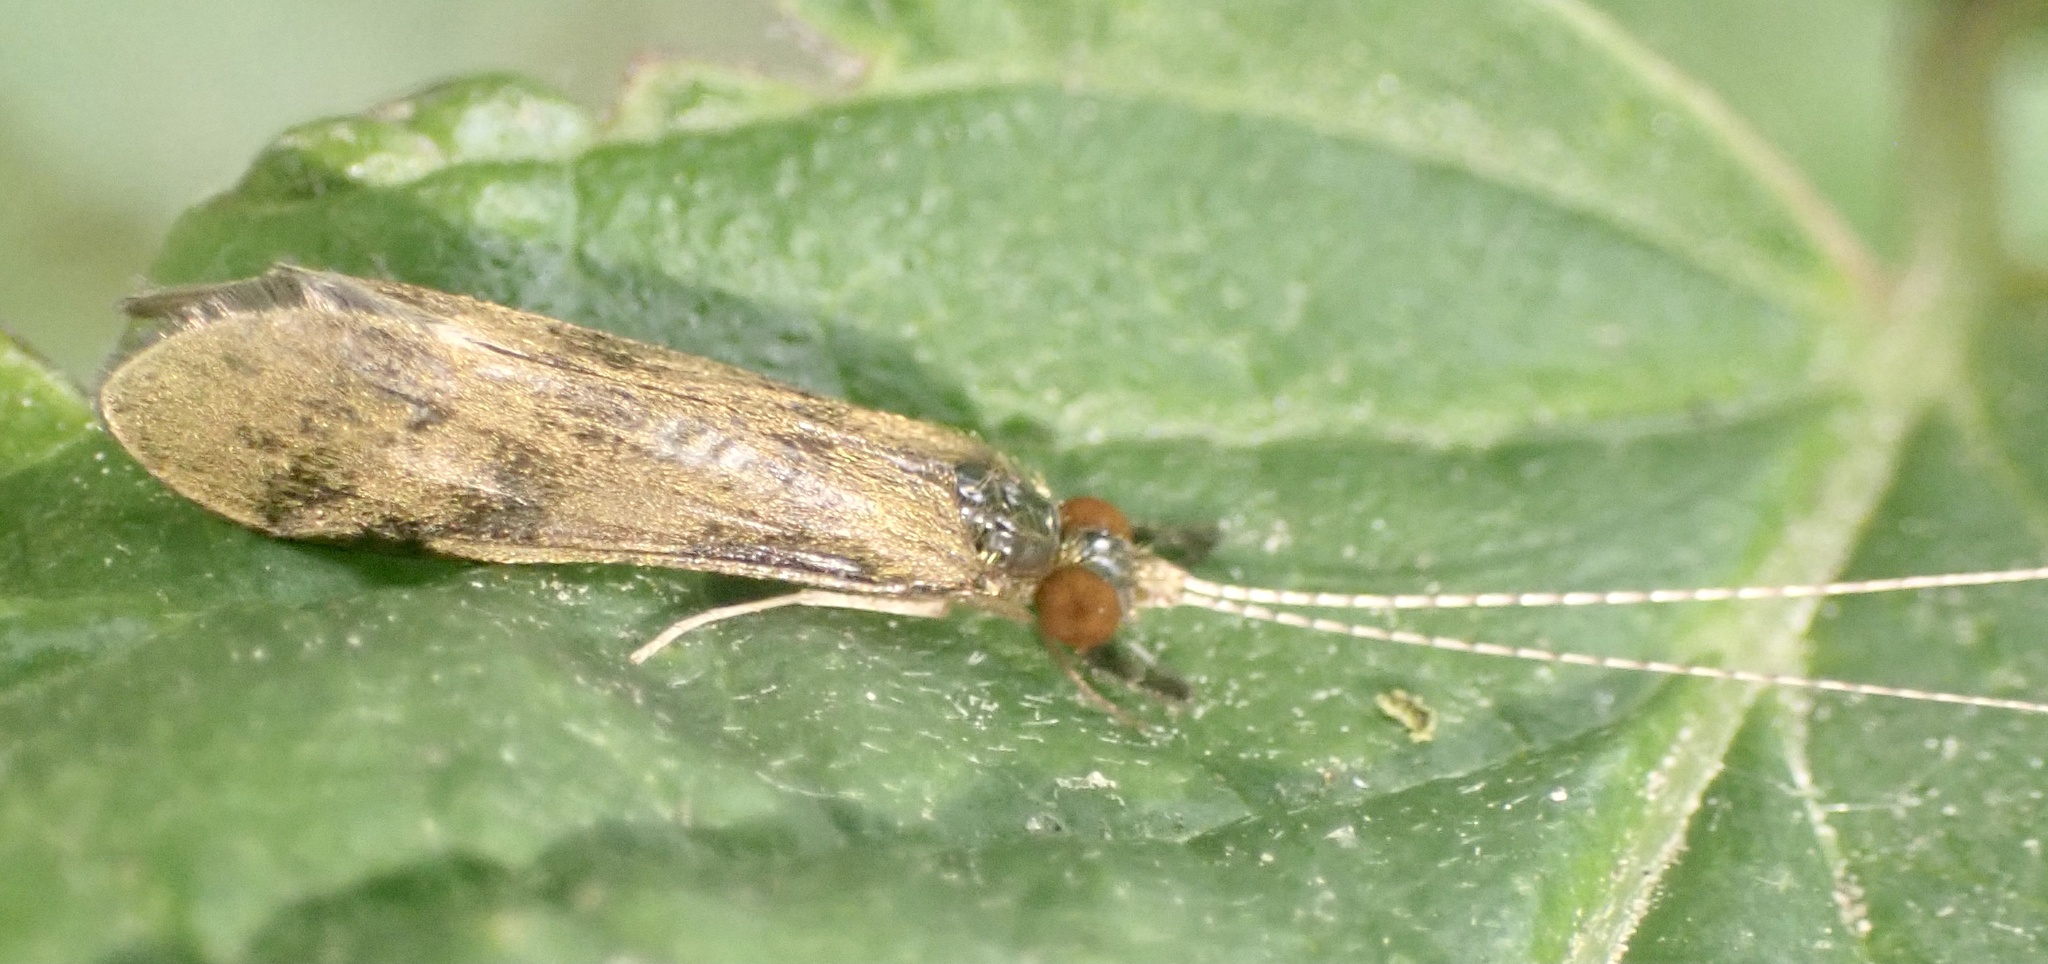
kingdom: Animalia
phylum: Arthropoda
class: Insecta
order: Trichoptera
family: Leptoceridae
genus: Mystacides
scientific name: Mystacides longicornis
